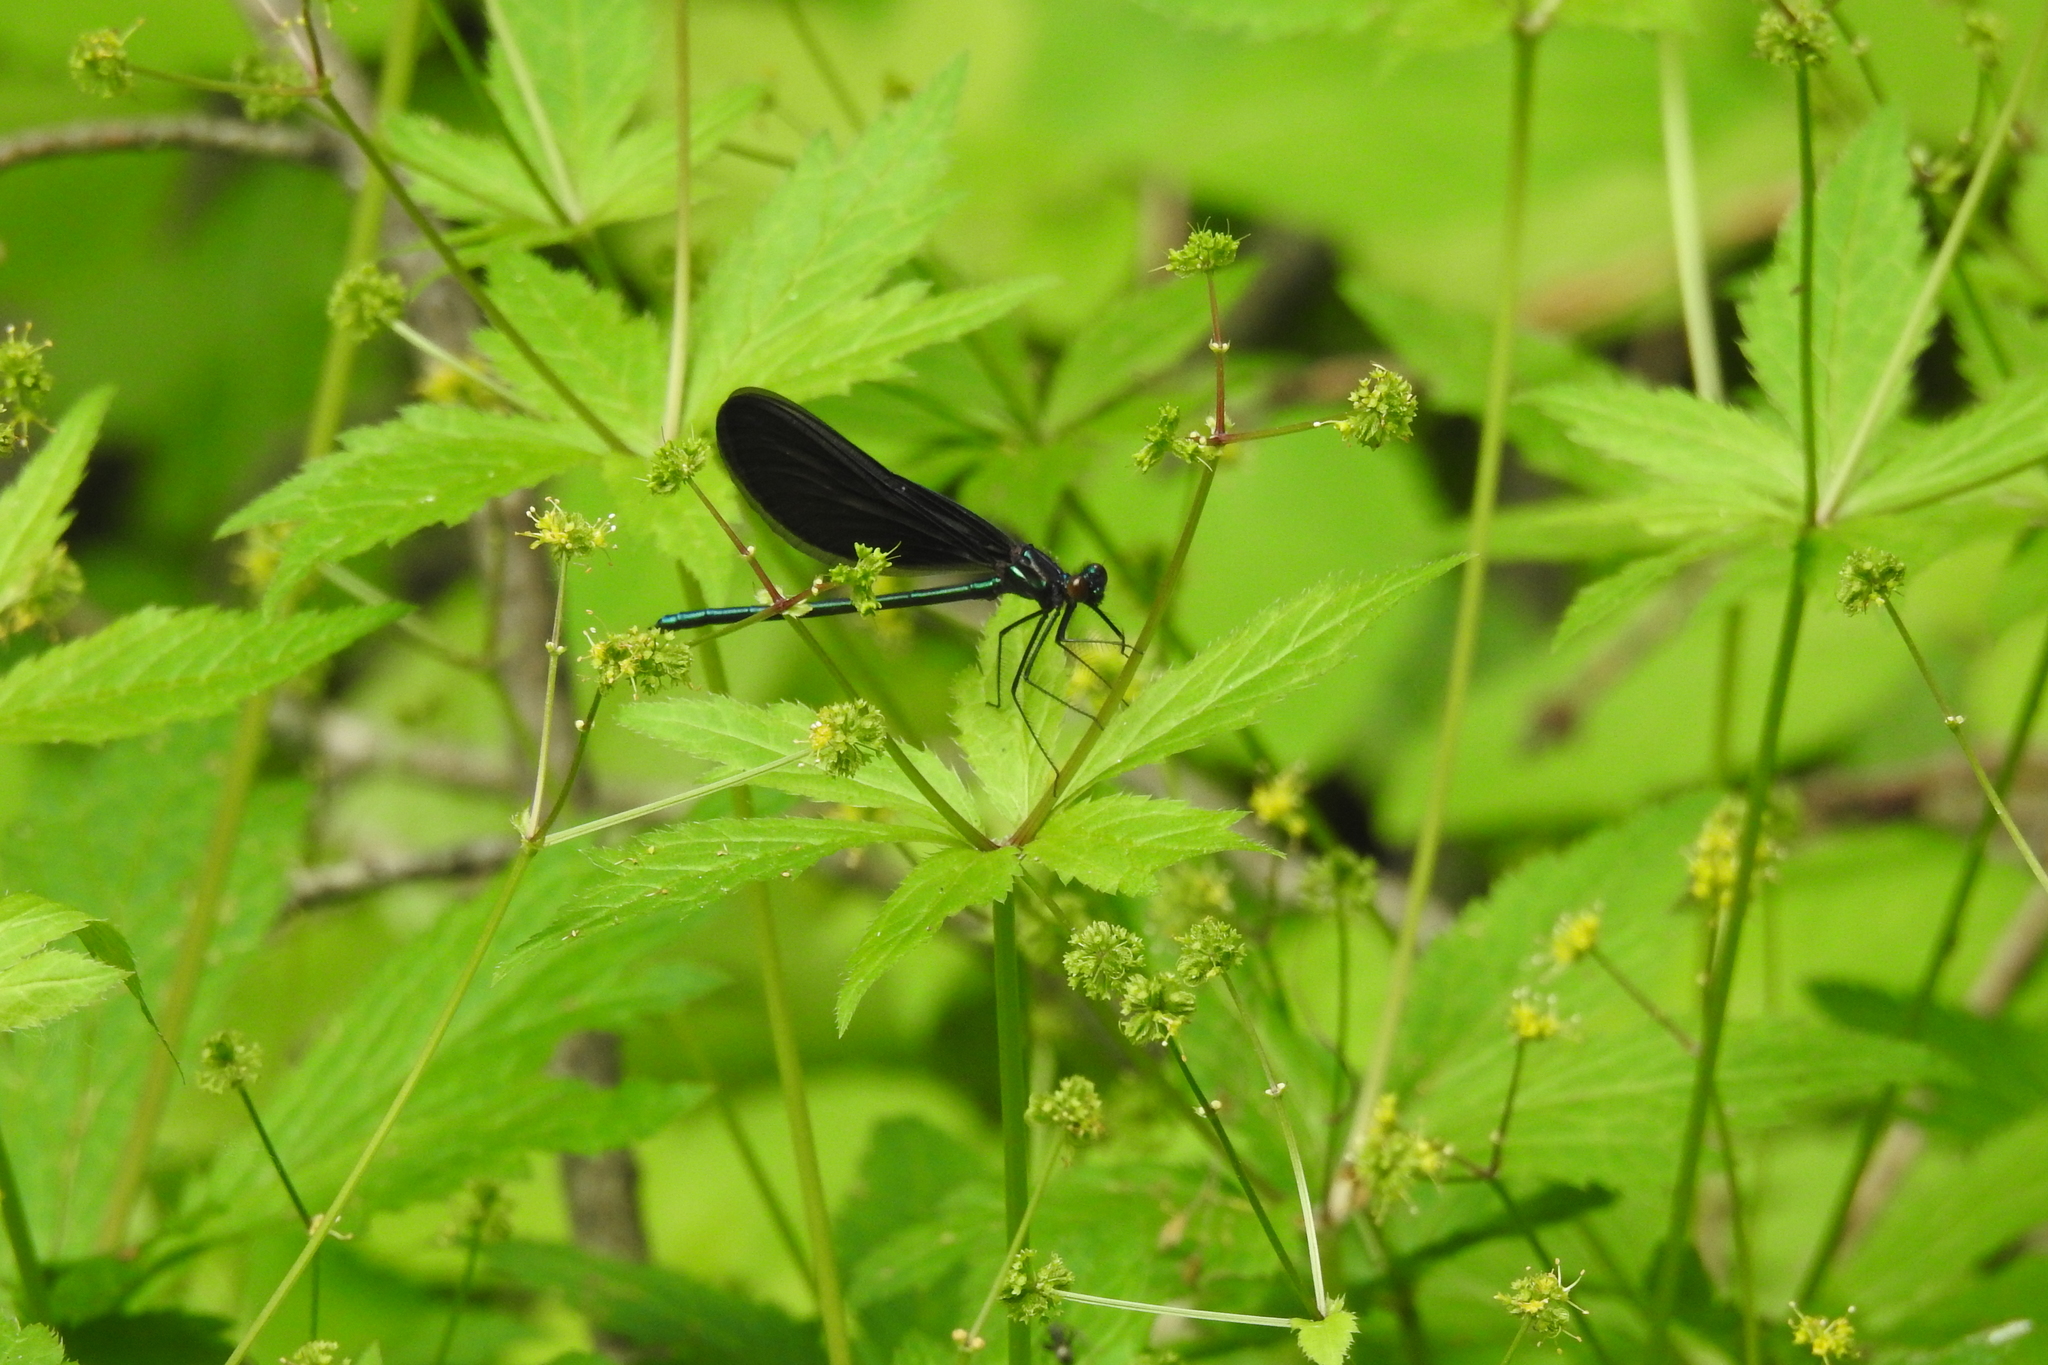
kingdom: Animalia
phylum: Arthropoda
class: Insecta
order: Odonata
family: Calopterygidae
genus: Calopteryx
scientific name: Calopteryx maculata
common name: Ebony jewelwing
